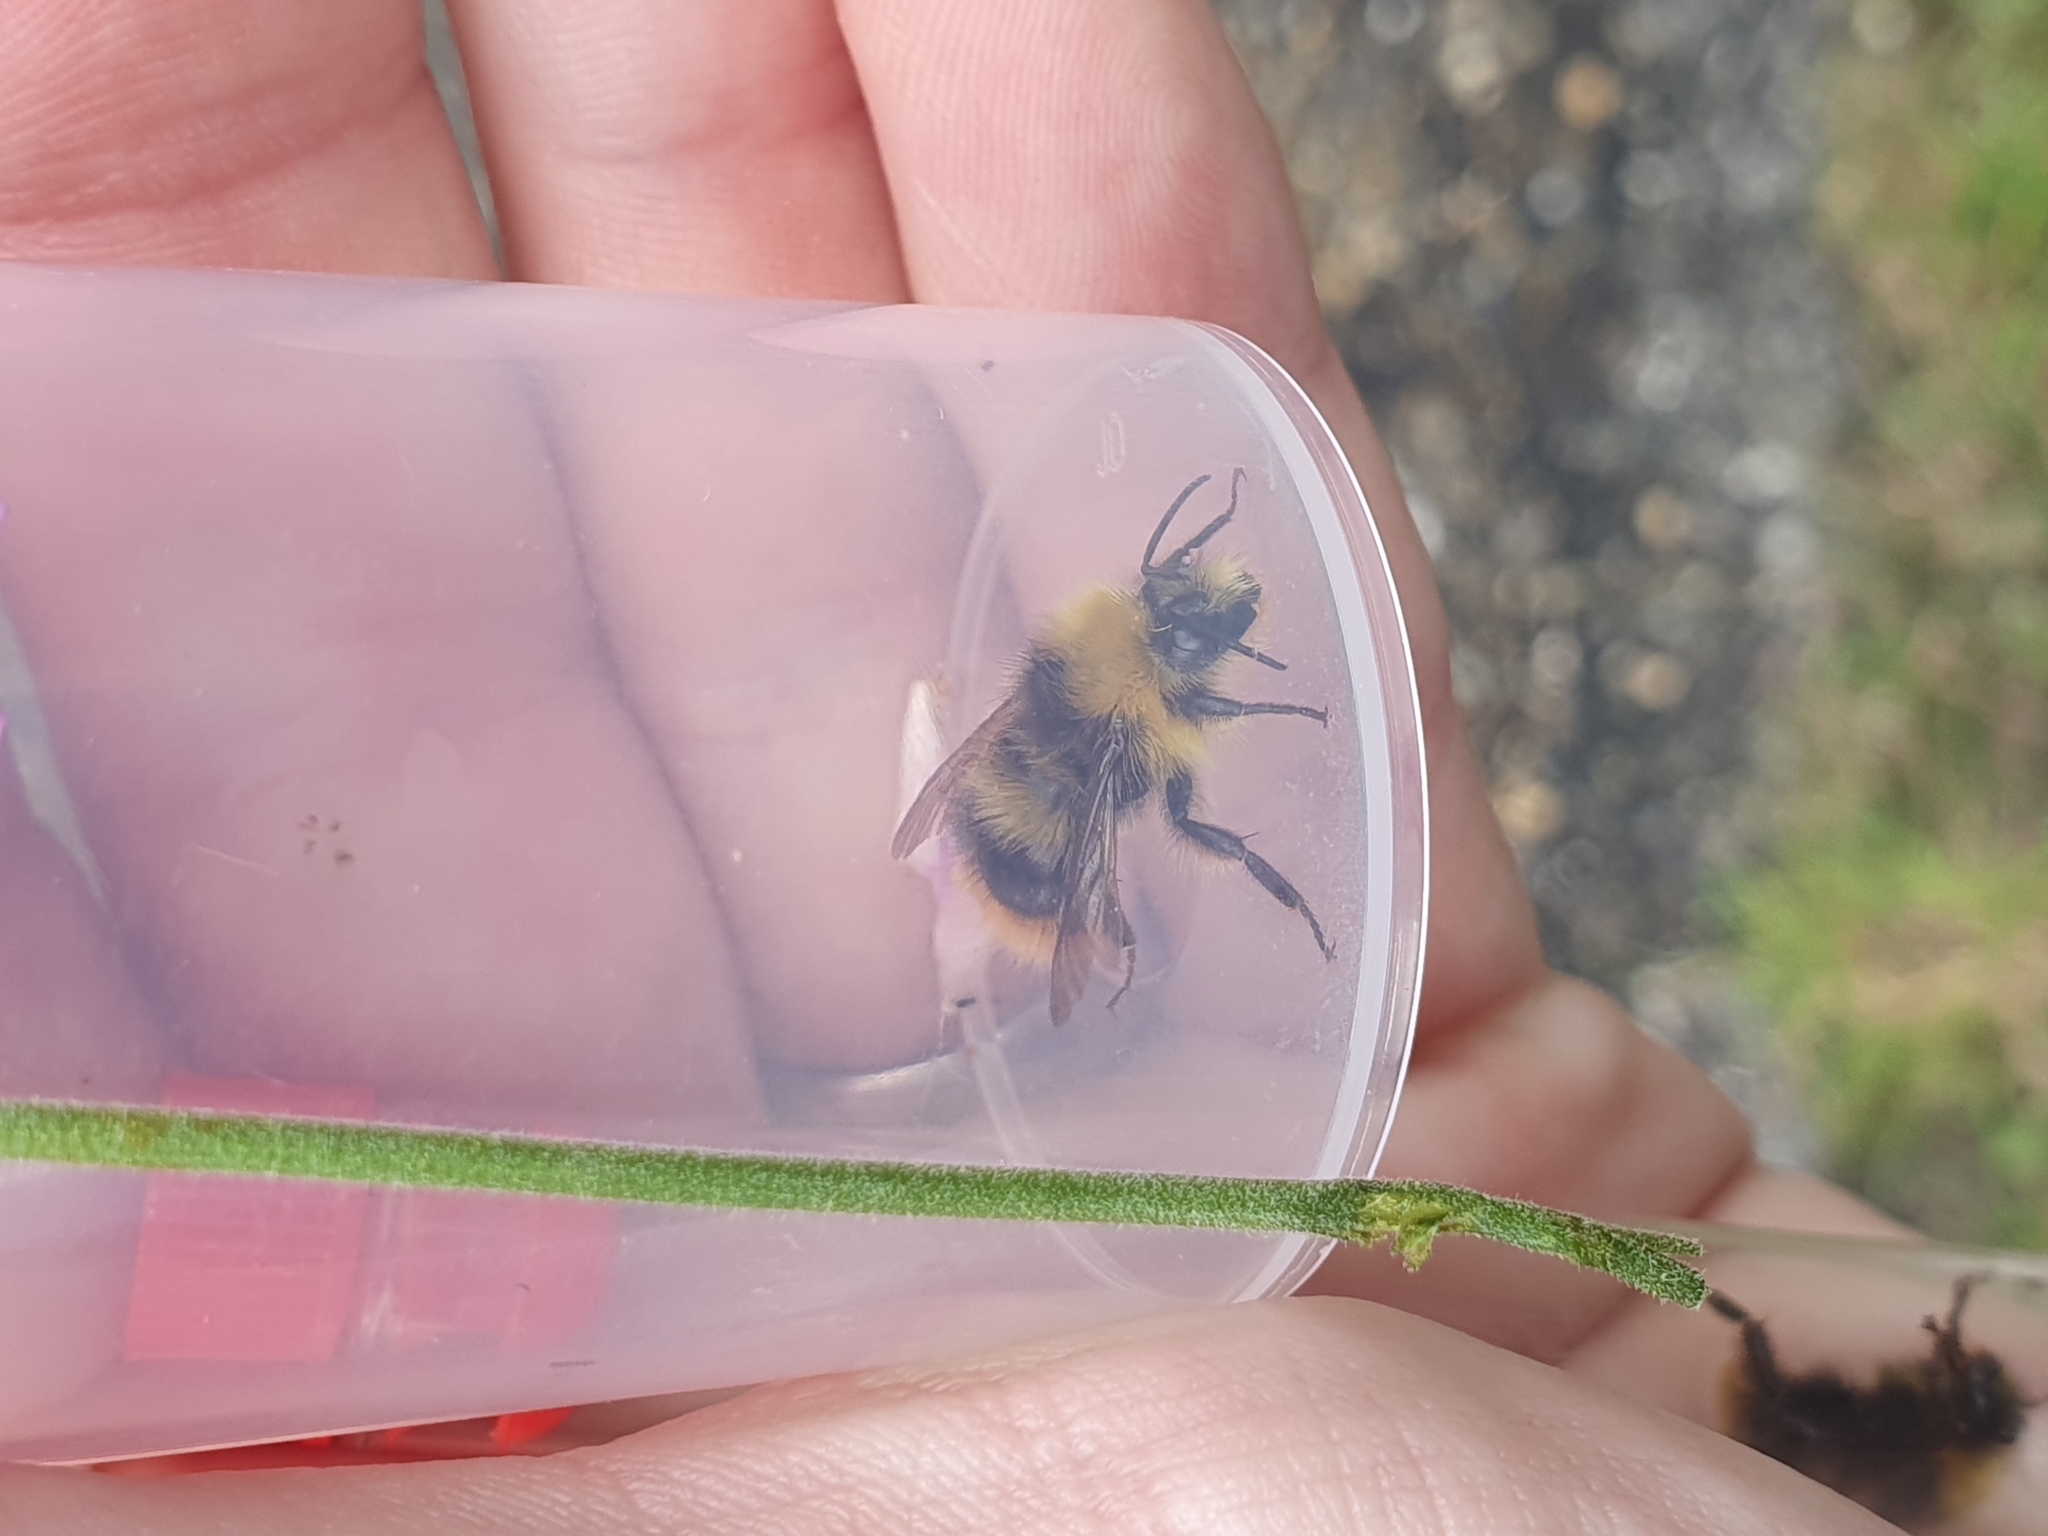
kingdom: Animalia
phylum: Arthropoda
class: Insecta
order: Hymenoptera
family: Apidae
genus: Bombus
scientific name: Bombus pratorum
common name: Early humble-bee
